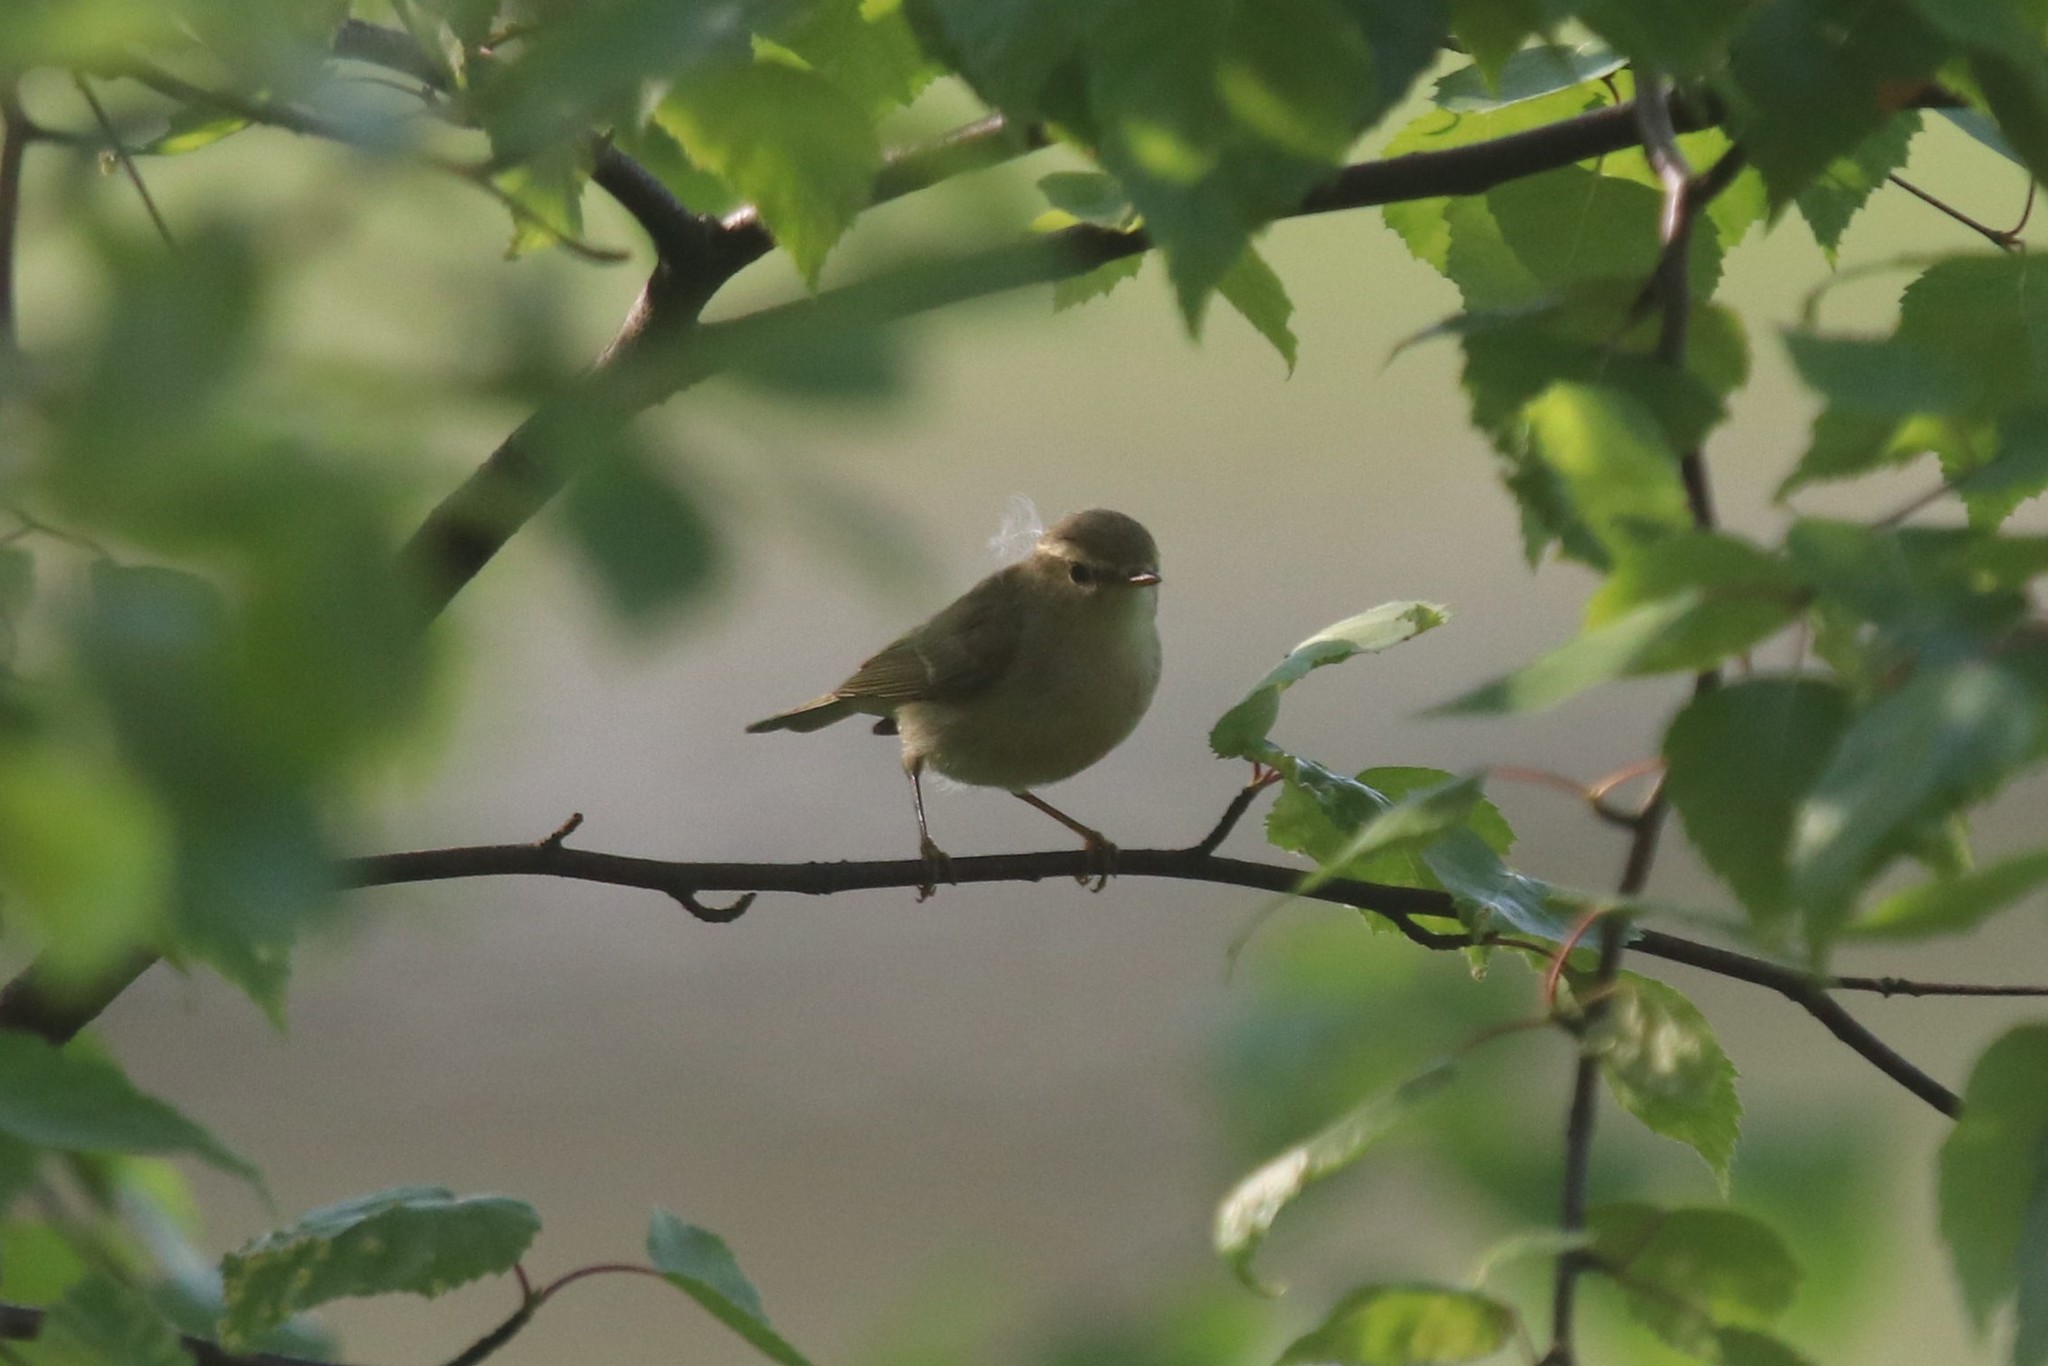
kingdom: Animalia
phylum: Chordata
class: Aves
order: Passeriformes
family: Phylloscopidae
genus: Phylloscopus
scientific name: Phylloscopus trochiloides
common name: Greenish warbler
